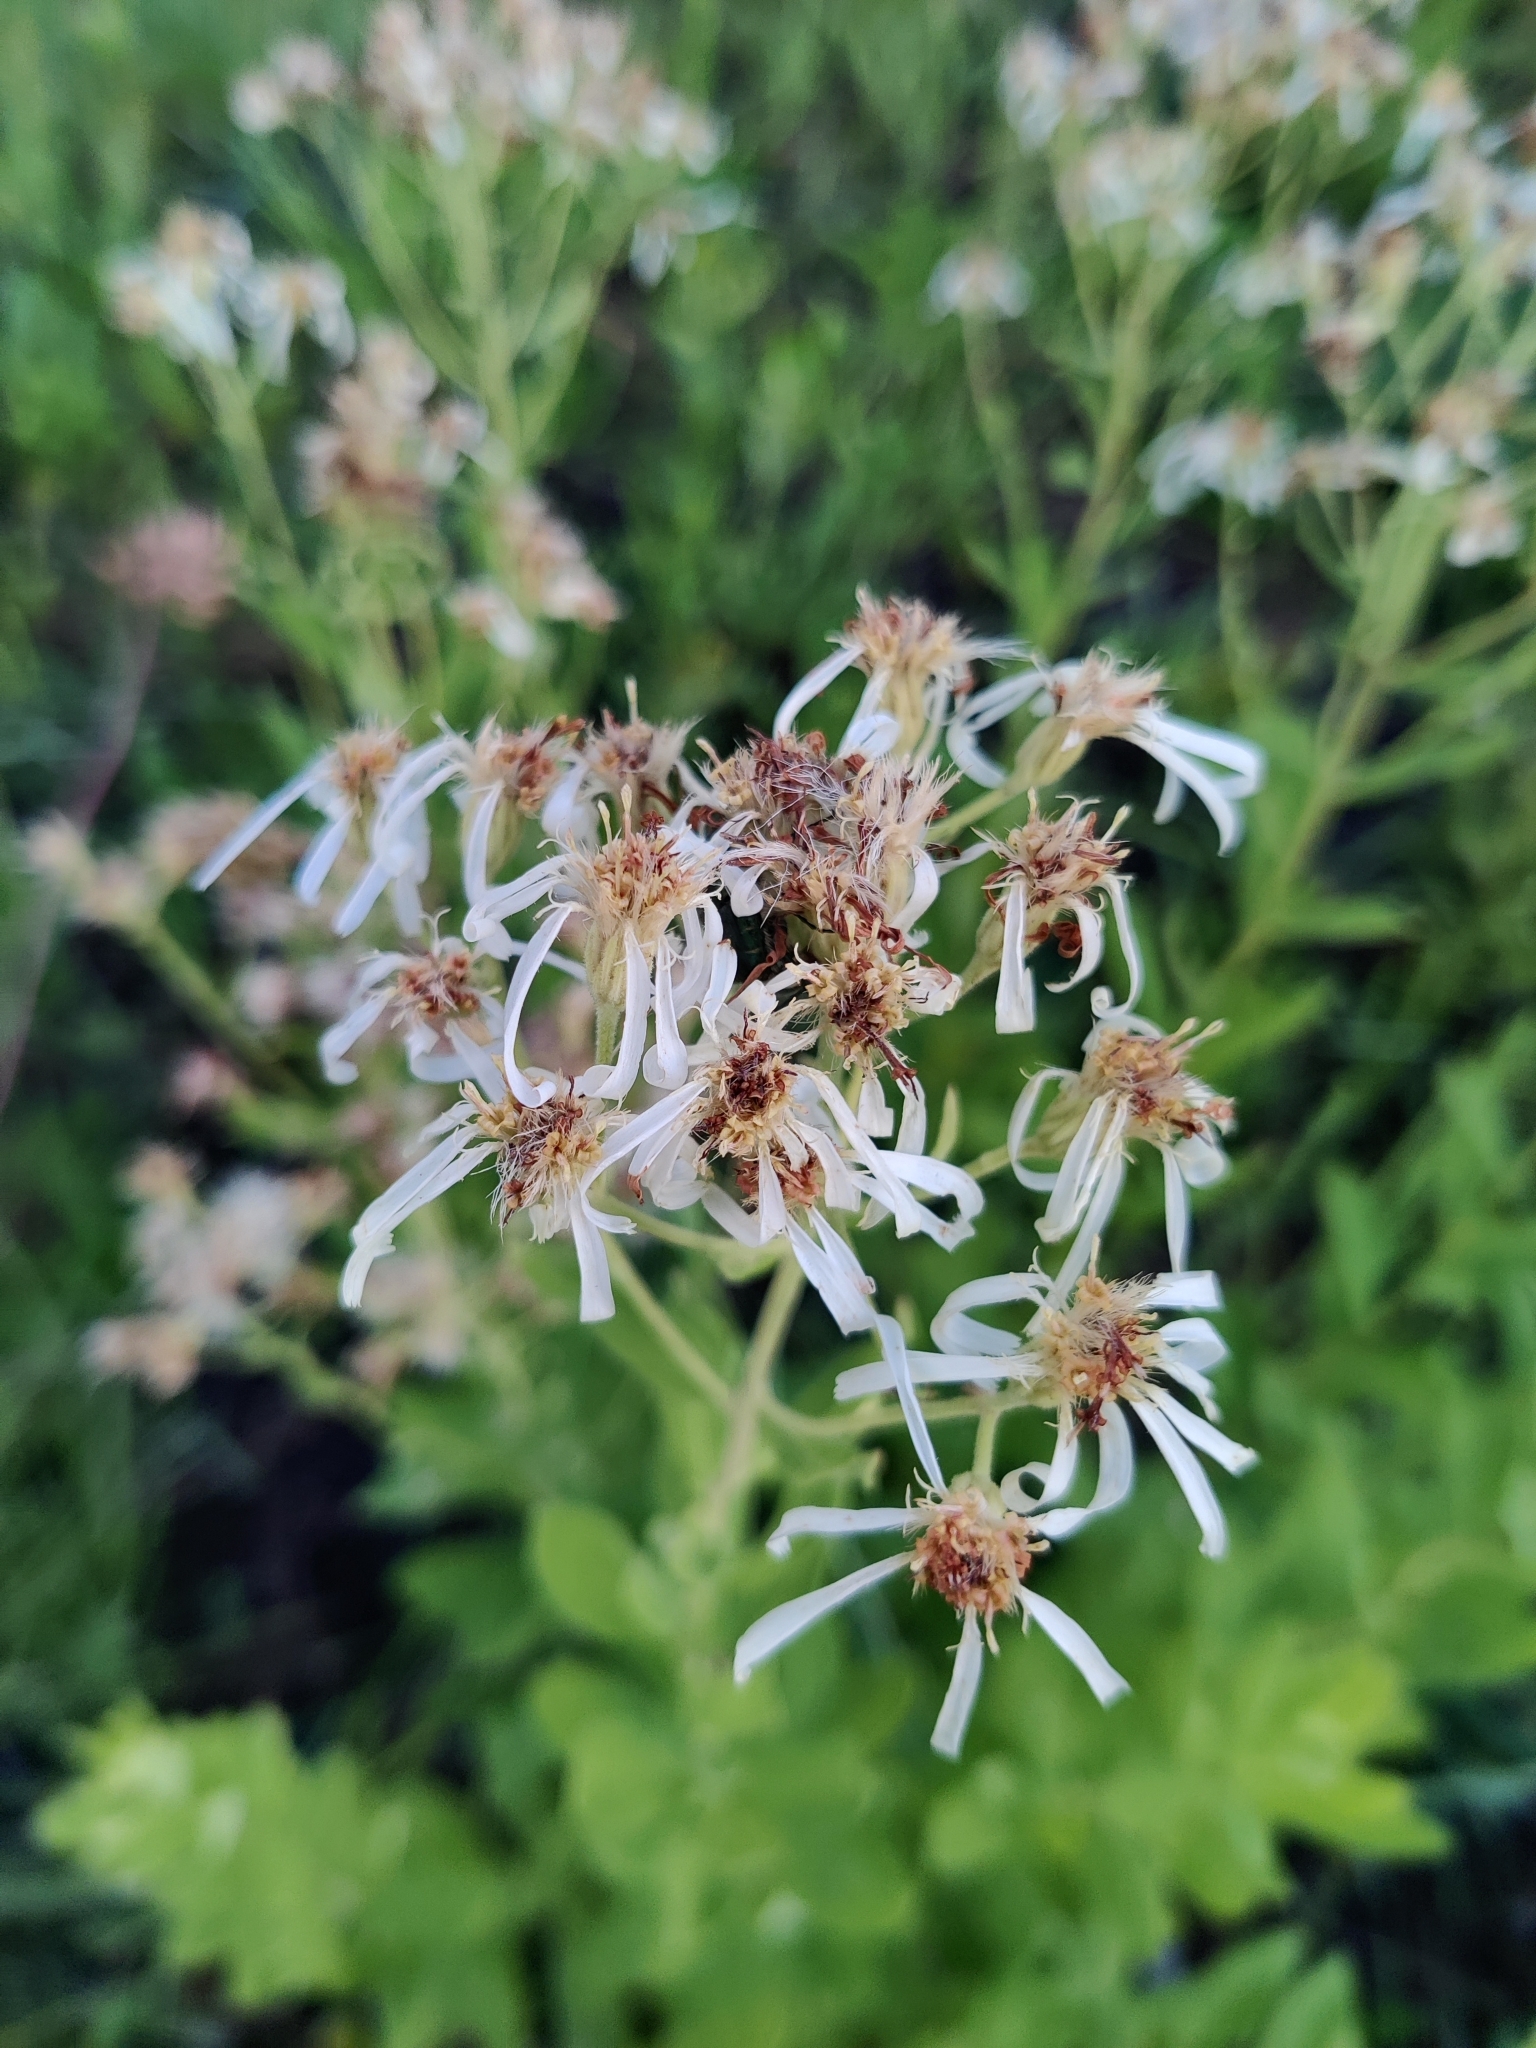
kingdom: Plantae
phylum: Tracheophyta
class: Magnoliopsida
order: Asterales
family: Asteraceae
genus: Oclemena
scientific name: Oclemena reticulata
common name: Pinebarren aster
